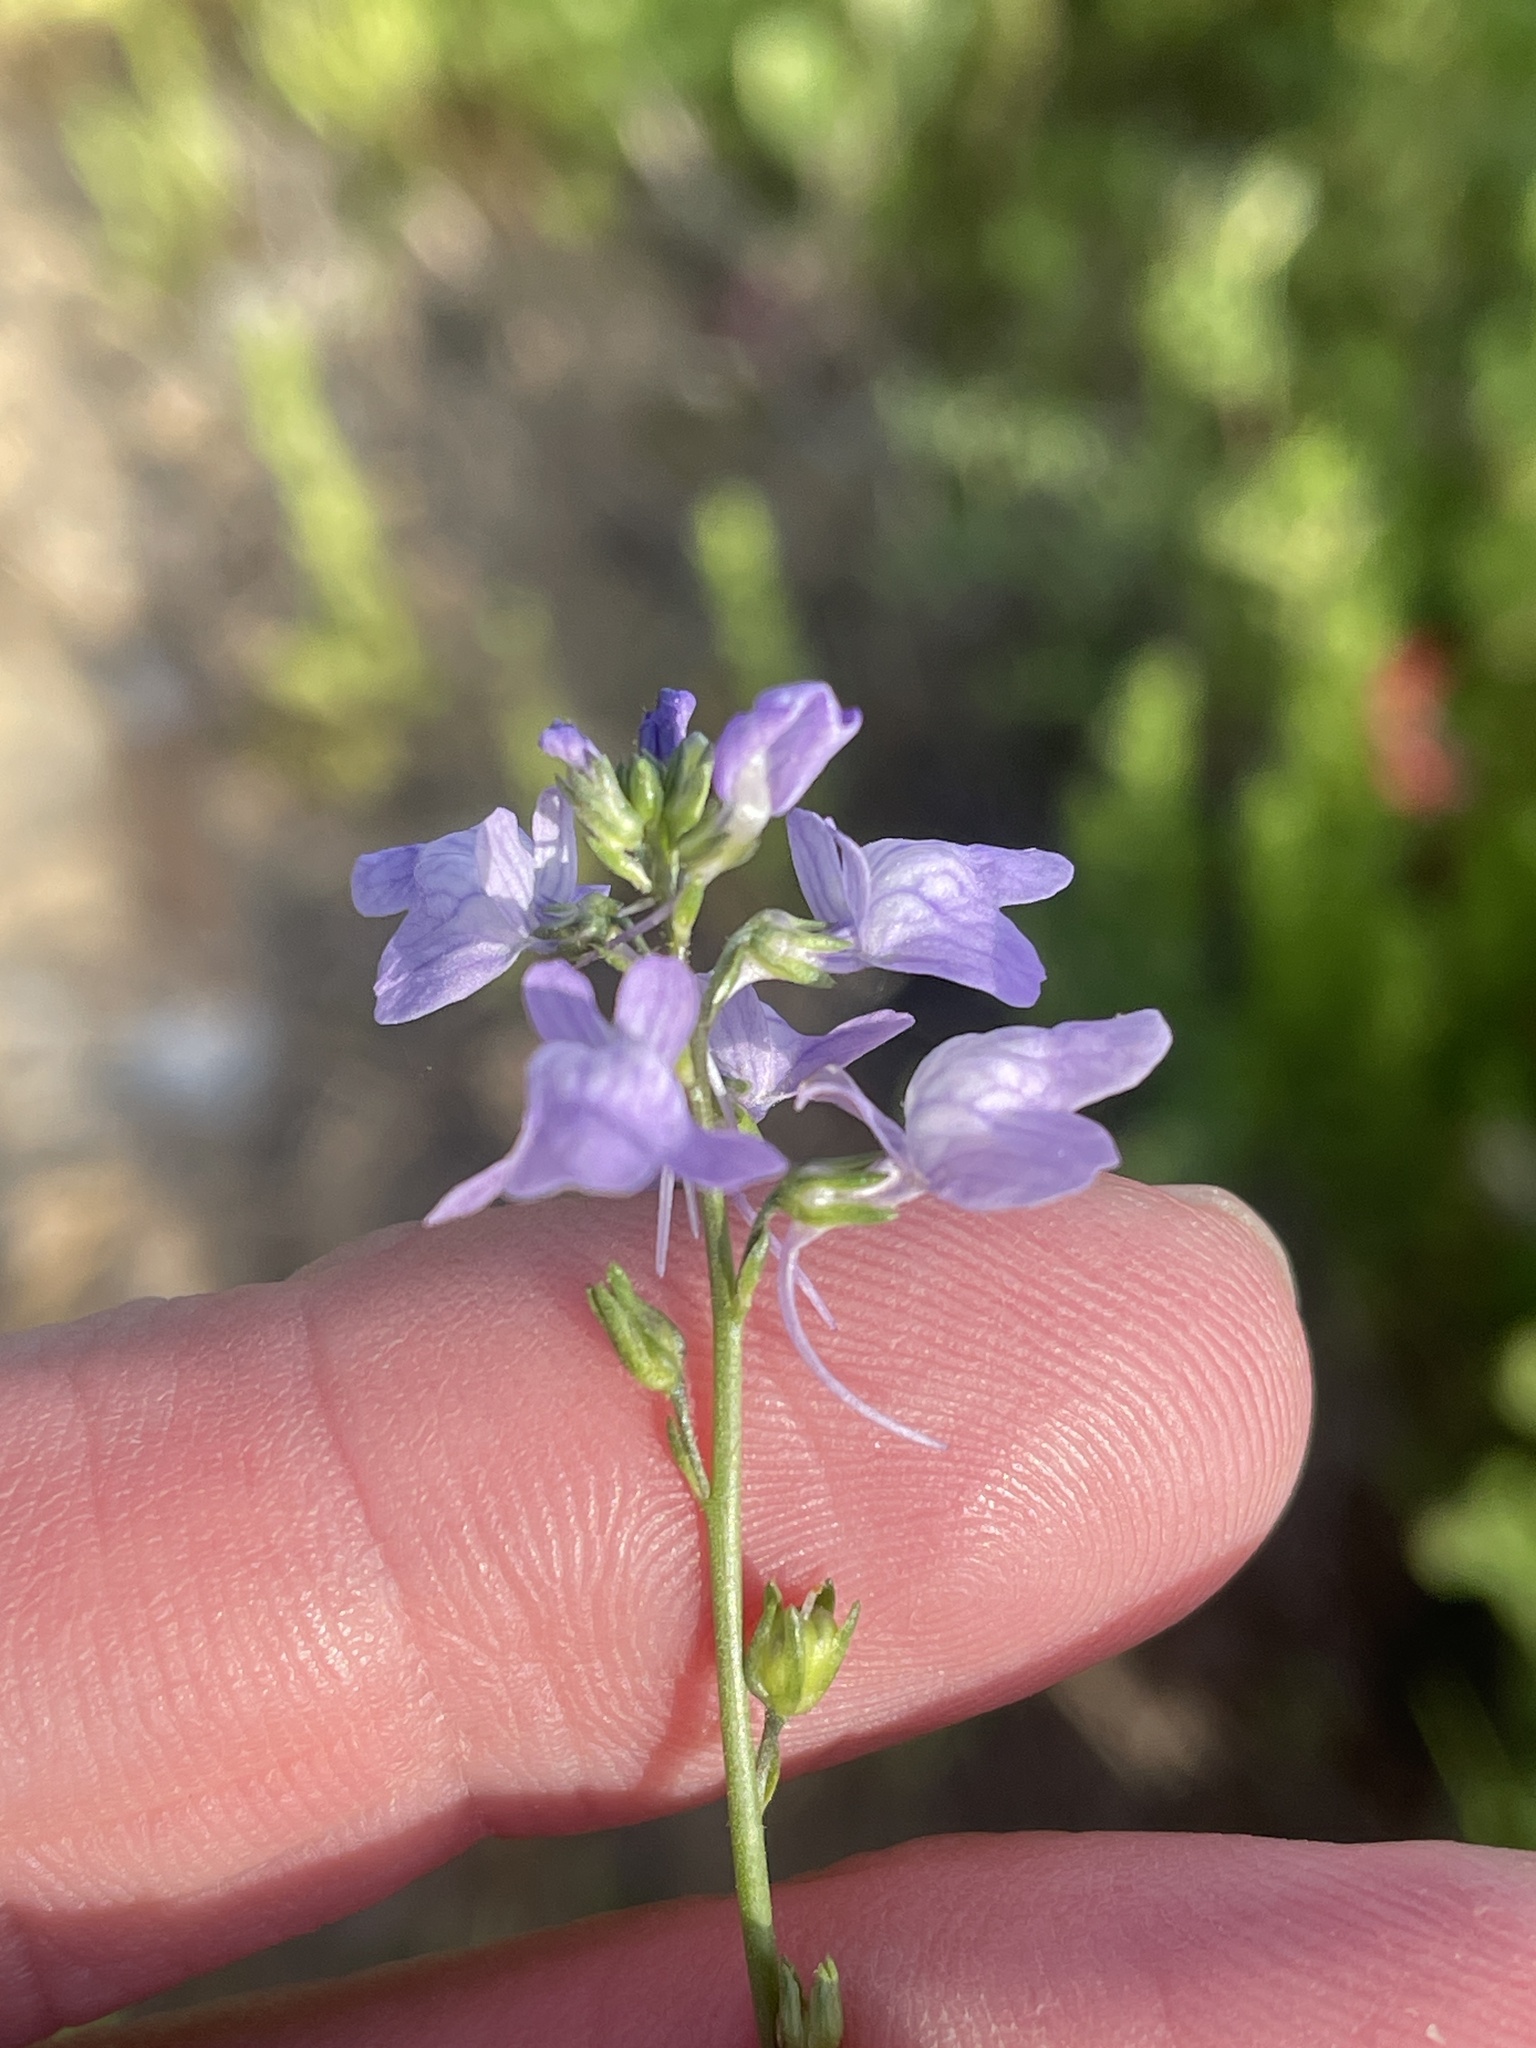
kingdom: Plantae
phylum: Tracheophyta
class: Magnoliopsida
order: Lamiales
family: Plantaginaceae
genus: Nuttallanthus
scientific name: Nuttallanthus texanus
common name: Texas toadflax
